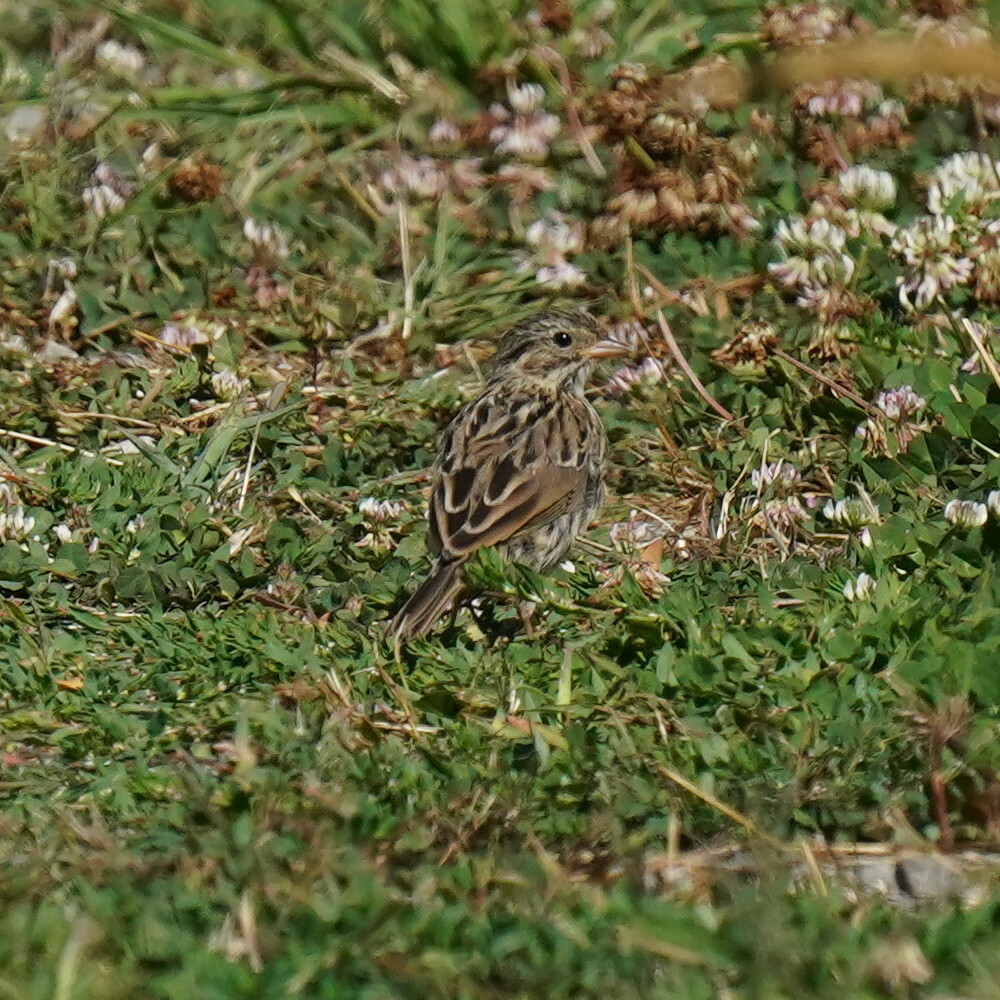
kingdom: Animalia
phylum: Chordata
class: Aves
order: Passeriformes
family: Passerellidae
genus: Passerculus
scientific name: Passerculus sandwichensis
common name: Savannah sparrow
